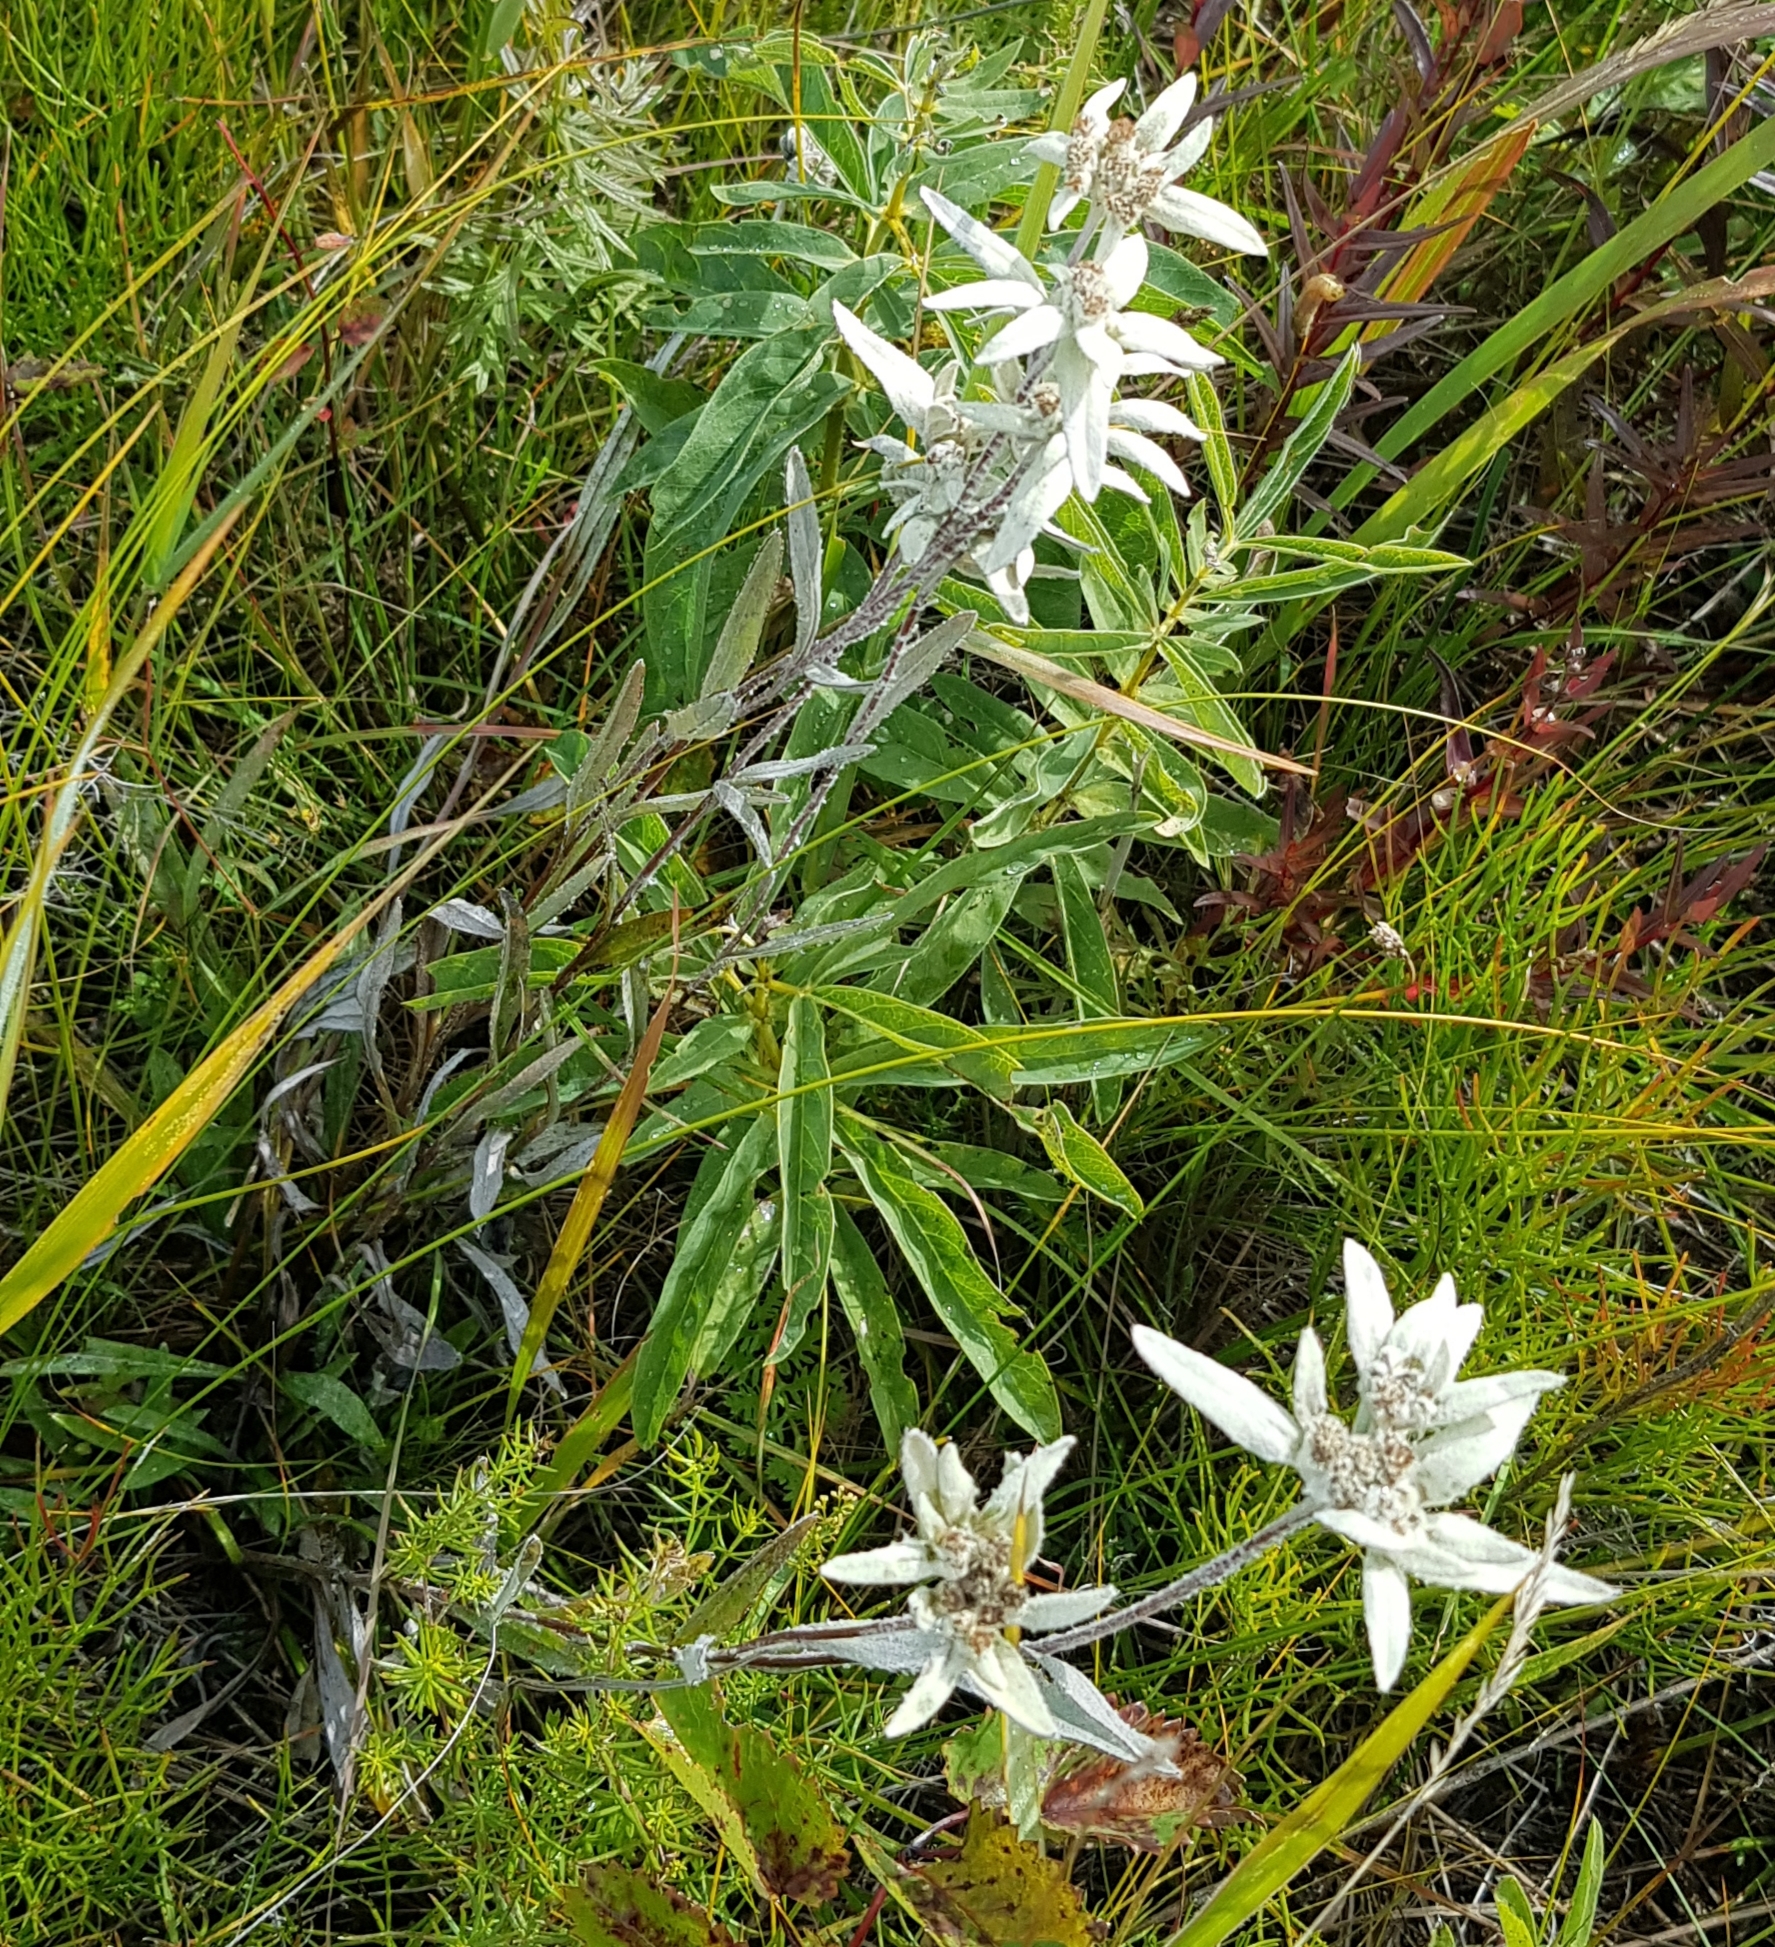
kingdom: Plantae
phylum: Tracheophyta
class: Magnoliopsida
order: Asterales
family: Asteraceae
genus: Leontopodium
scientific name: Leontopodium palibinianum
